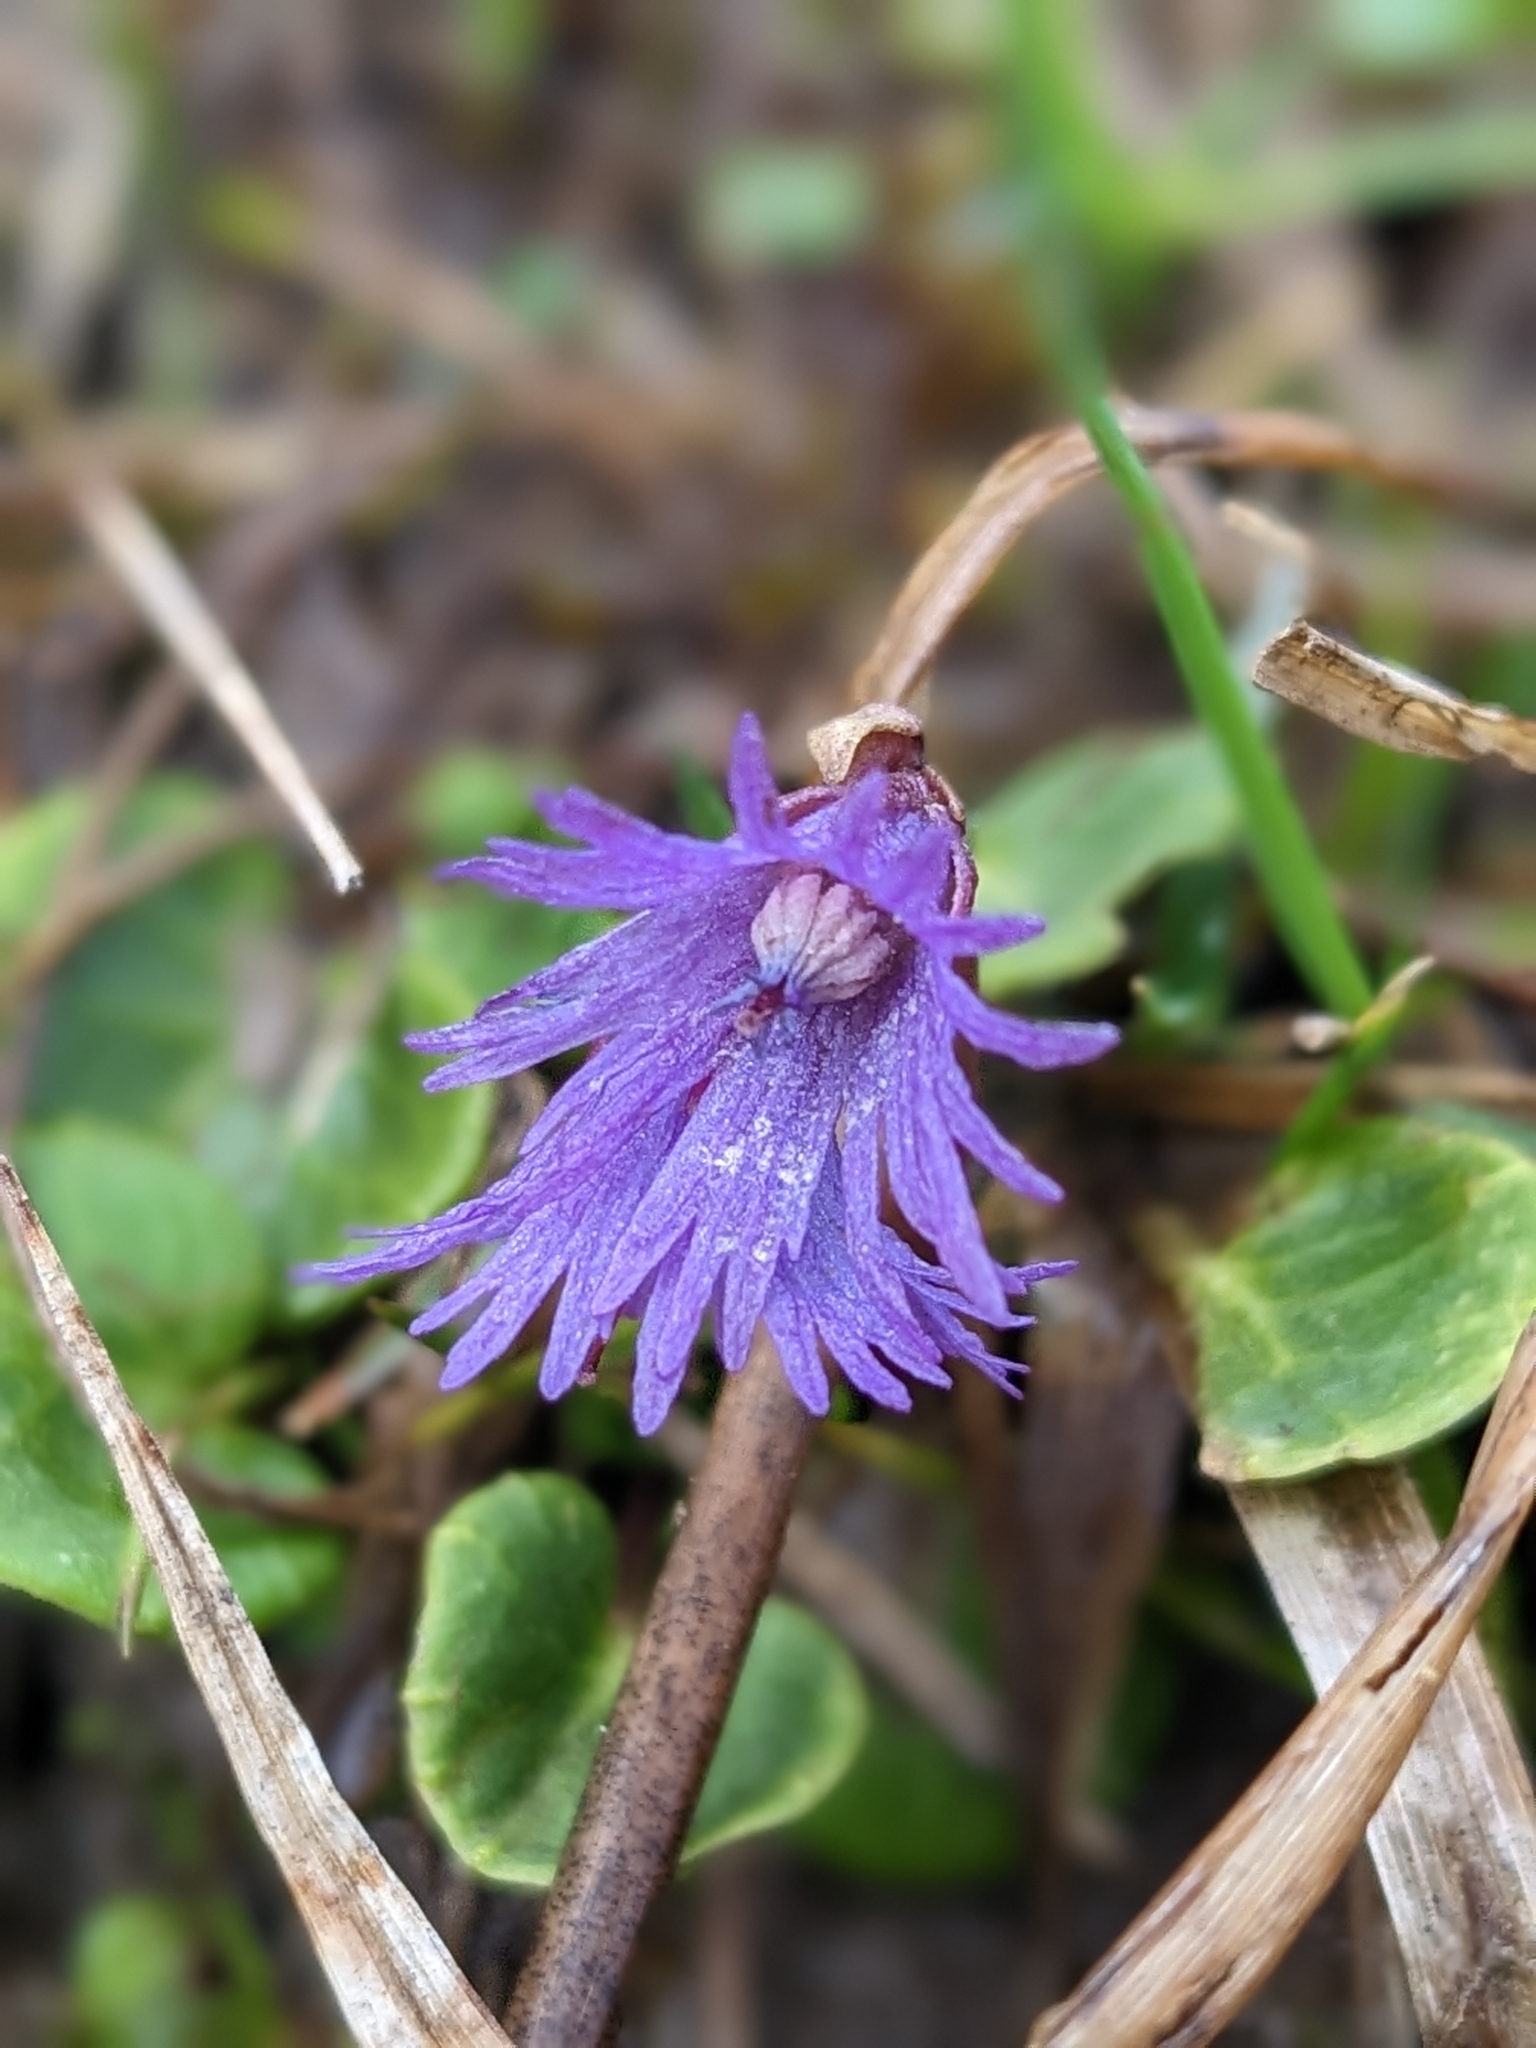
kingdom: Plantae
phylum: Tracheophyta
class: Magnoliopsida
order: Ericales
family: Primulaceae
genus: Soldanella
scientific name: Soldanella alpina
